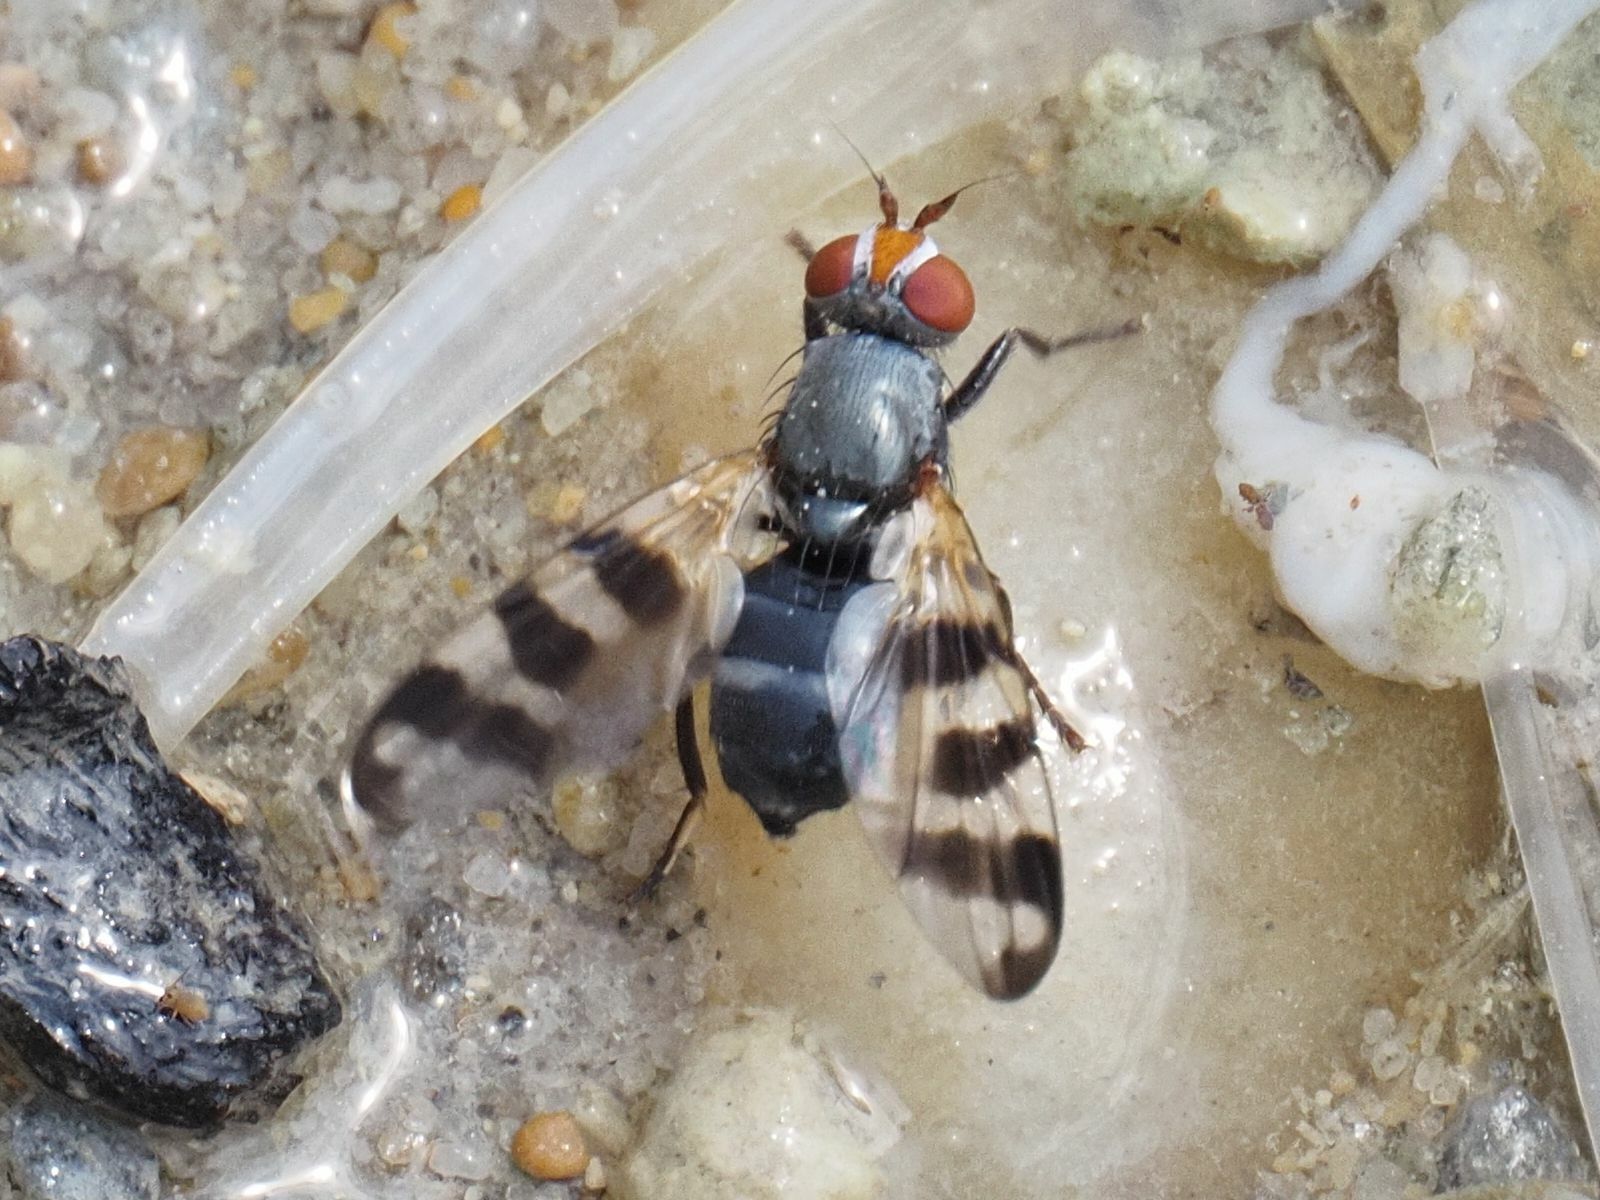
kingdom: Animalia
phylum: Arthropoda
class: Insecta
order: Diptera
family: Ulidiidae
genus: Ceroxys
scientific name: Ceroxys urticae
